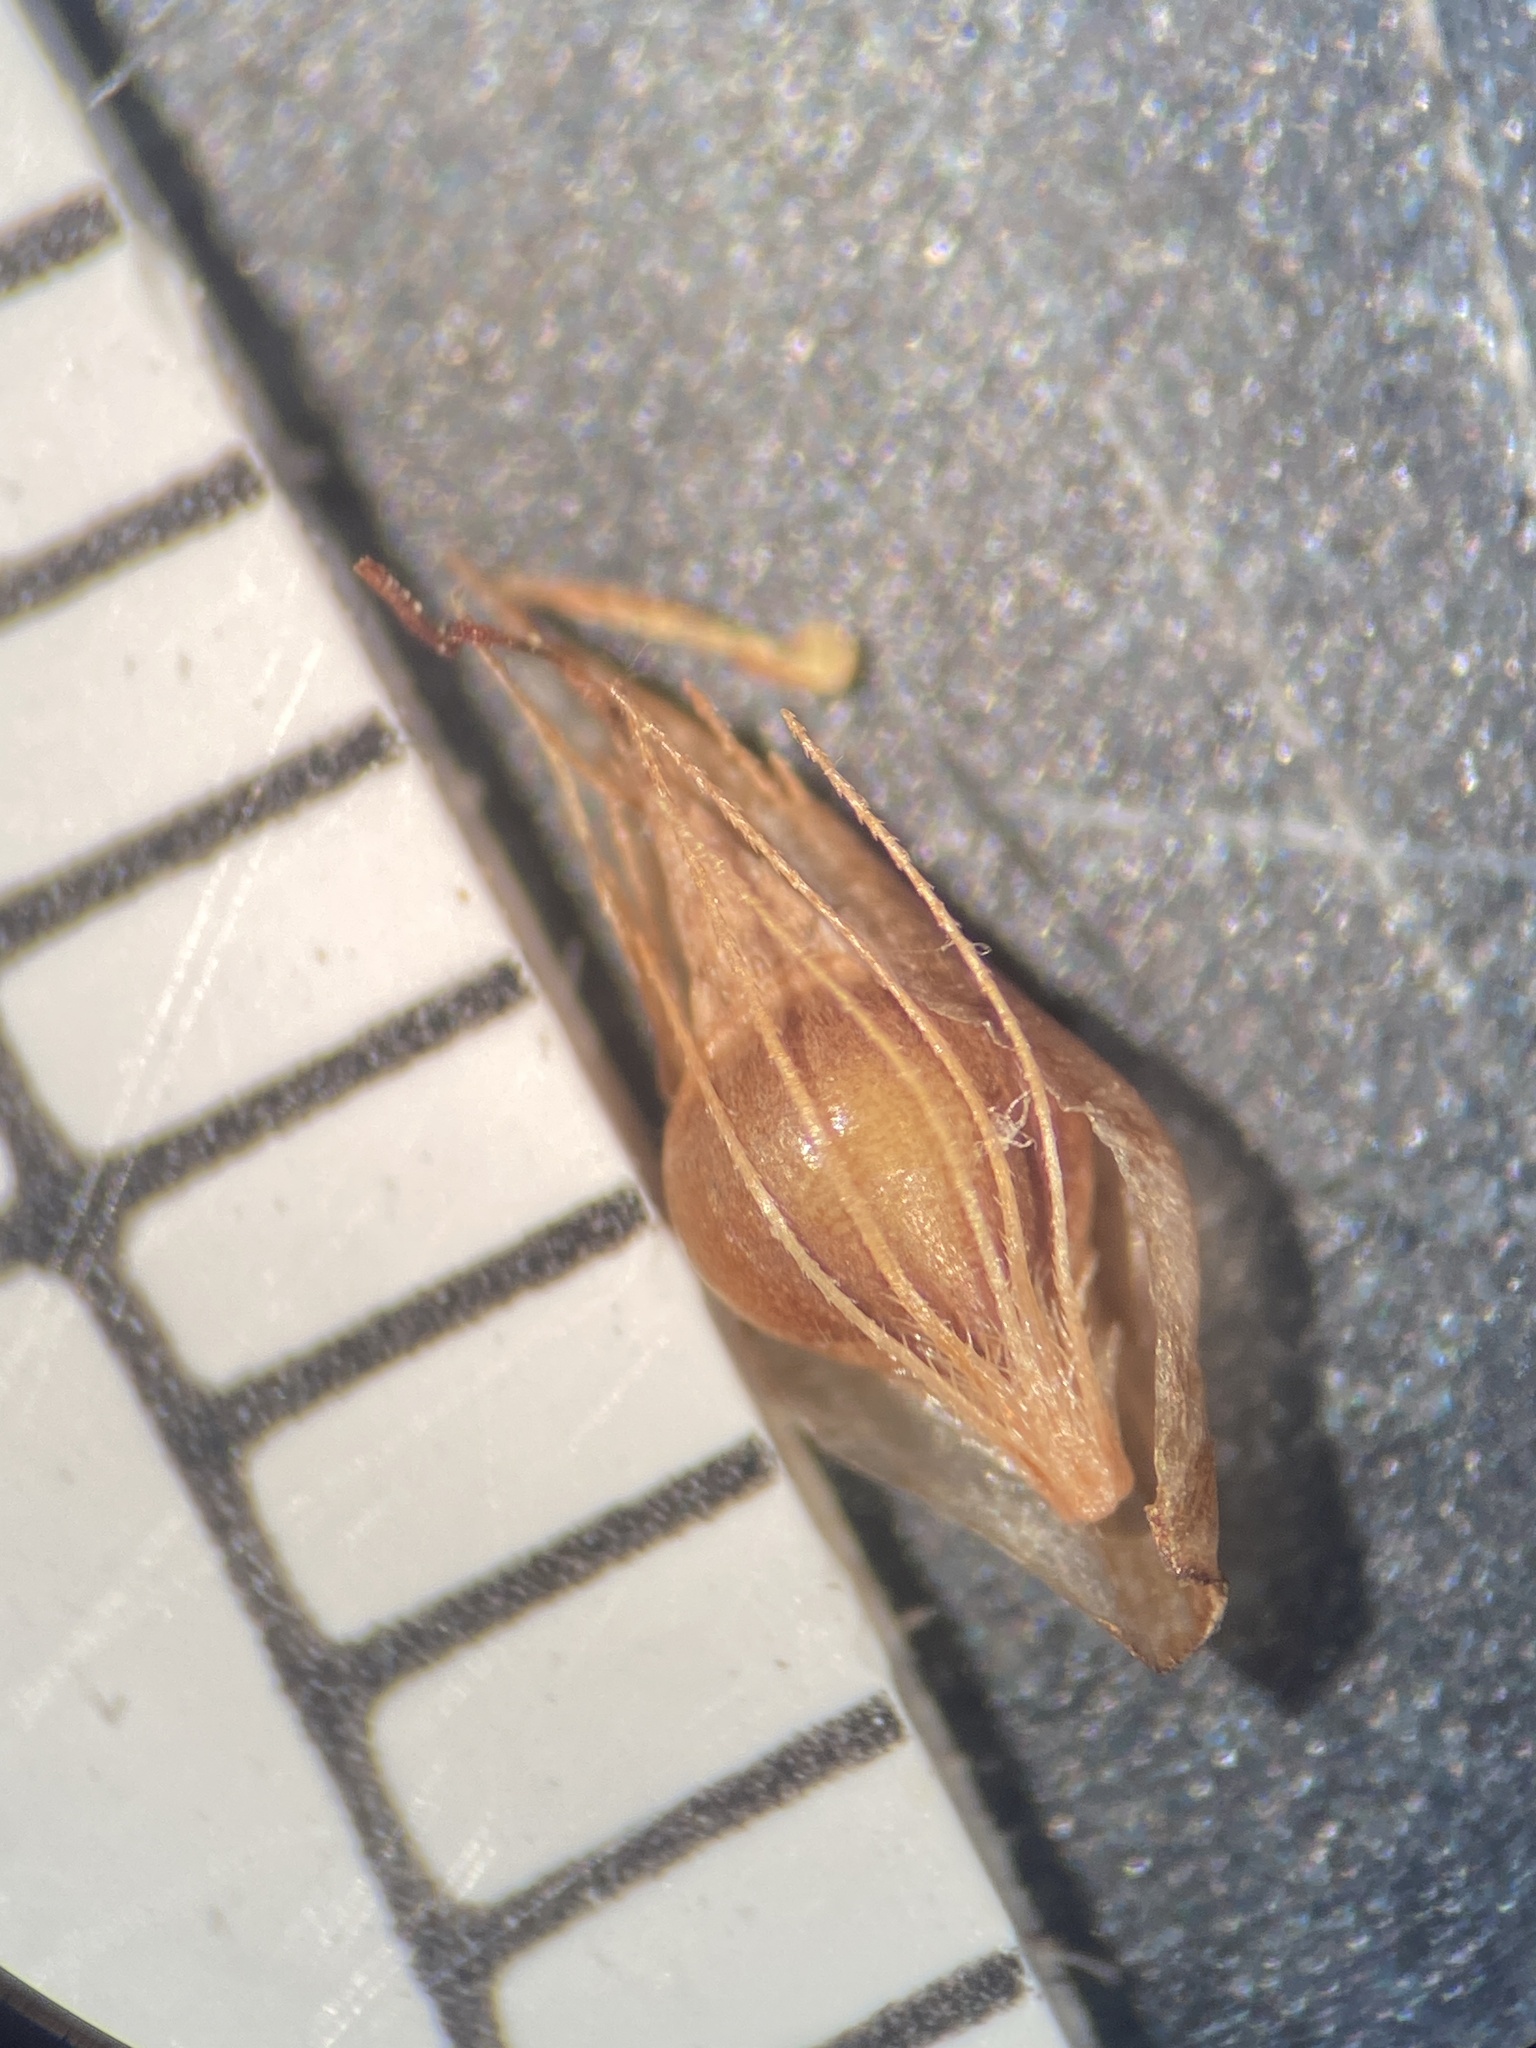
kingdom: Plantae
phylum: Tracheophyta
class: Liliopsida
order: Poales
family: Cyperaceae
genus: Rhynchospora
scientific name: Rhynchospora alba
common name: White beak-sedge
